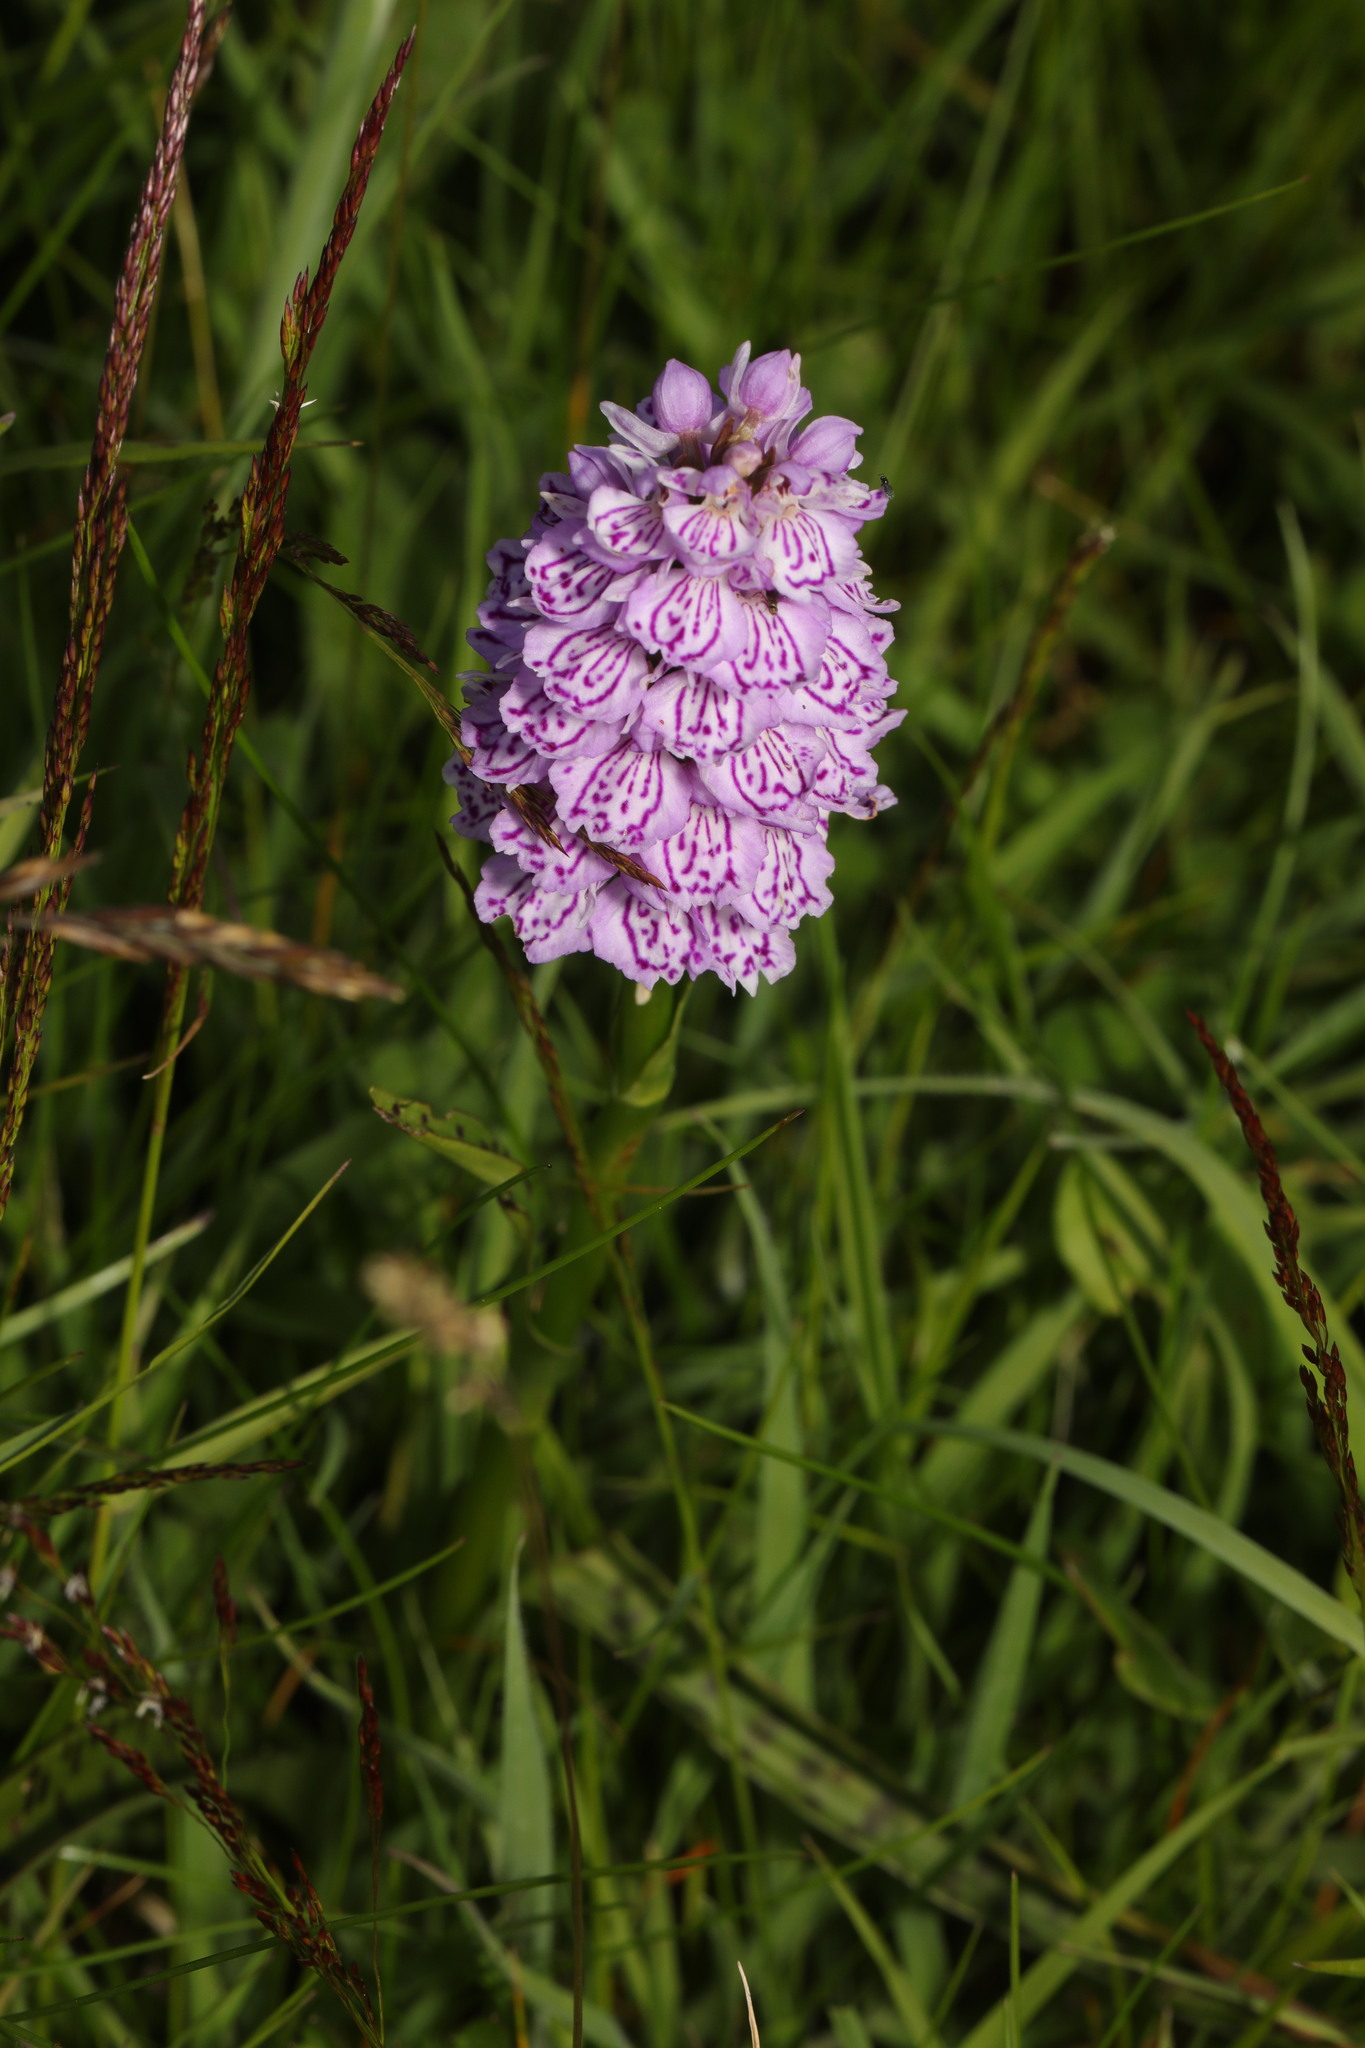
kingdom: Plantae
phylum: Tracheophyta
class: Liliopsida
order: Asparagales
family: Orchidaceae
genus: Dactylorhiza
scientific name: Dactylorhiza maculata
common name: Heath spotted-orchid
